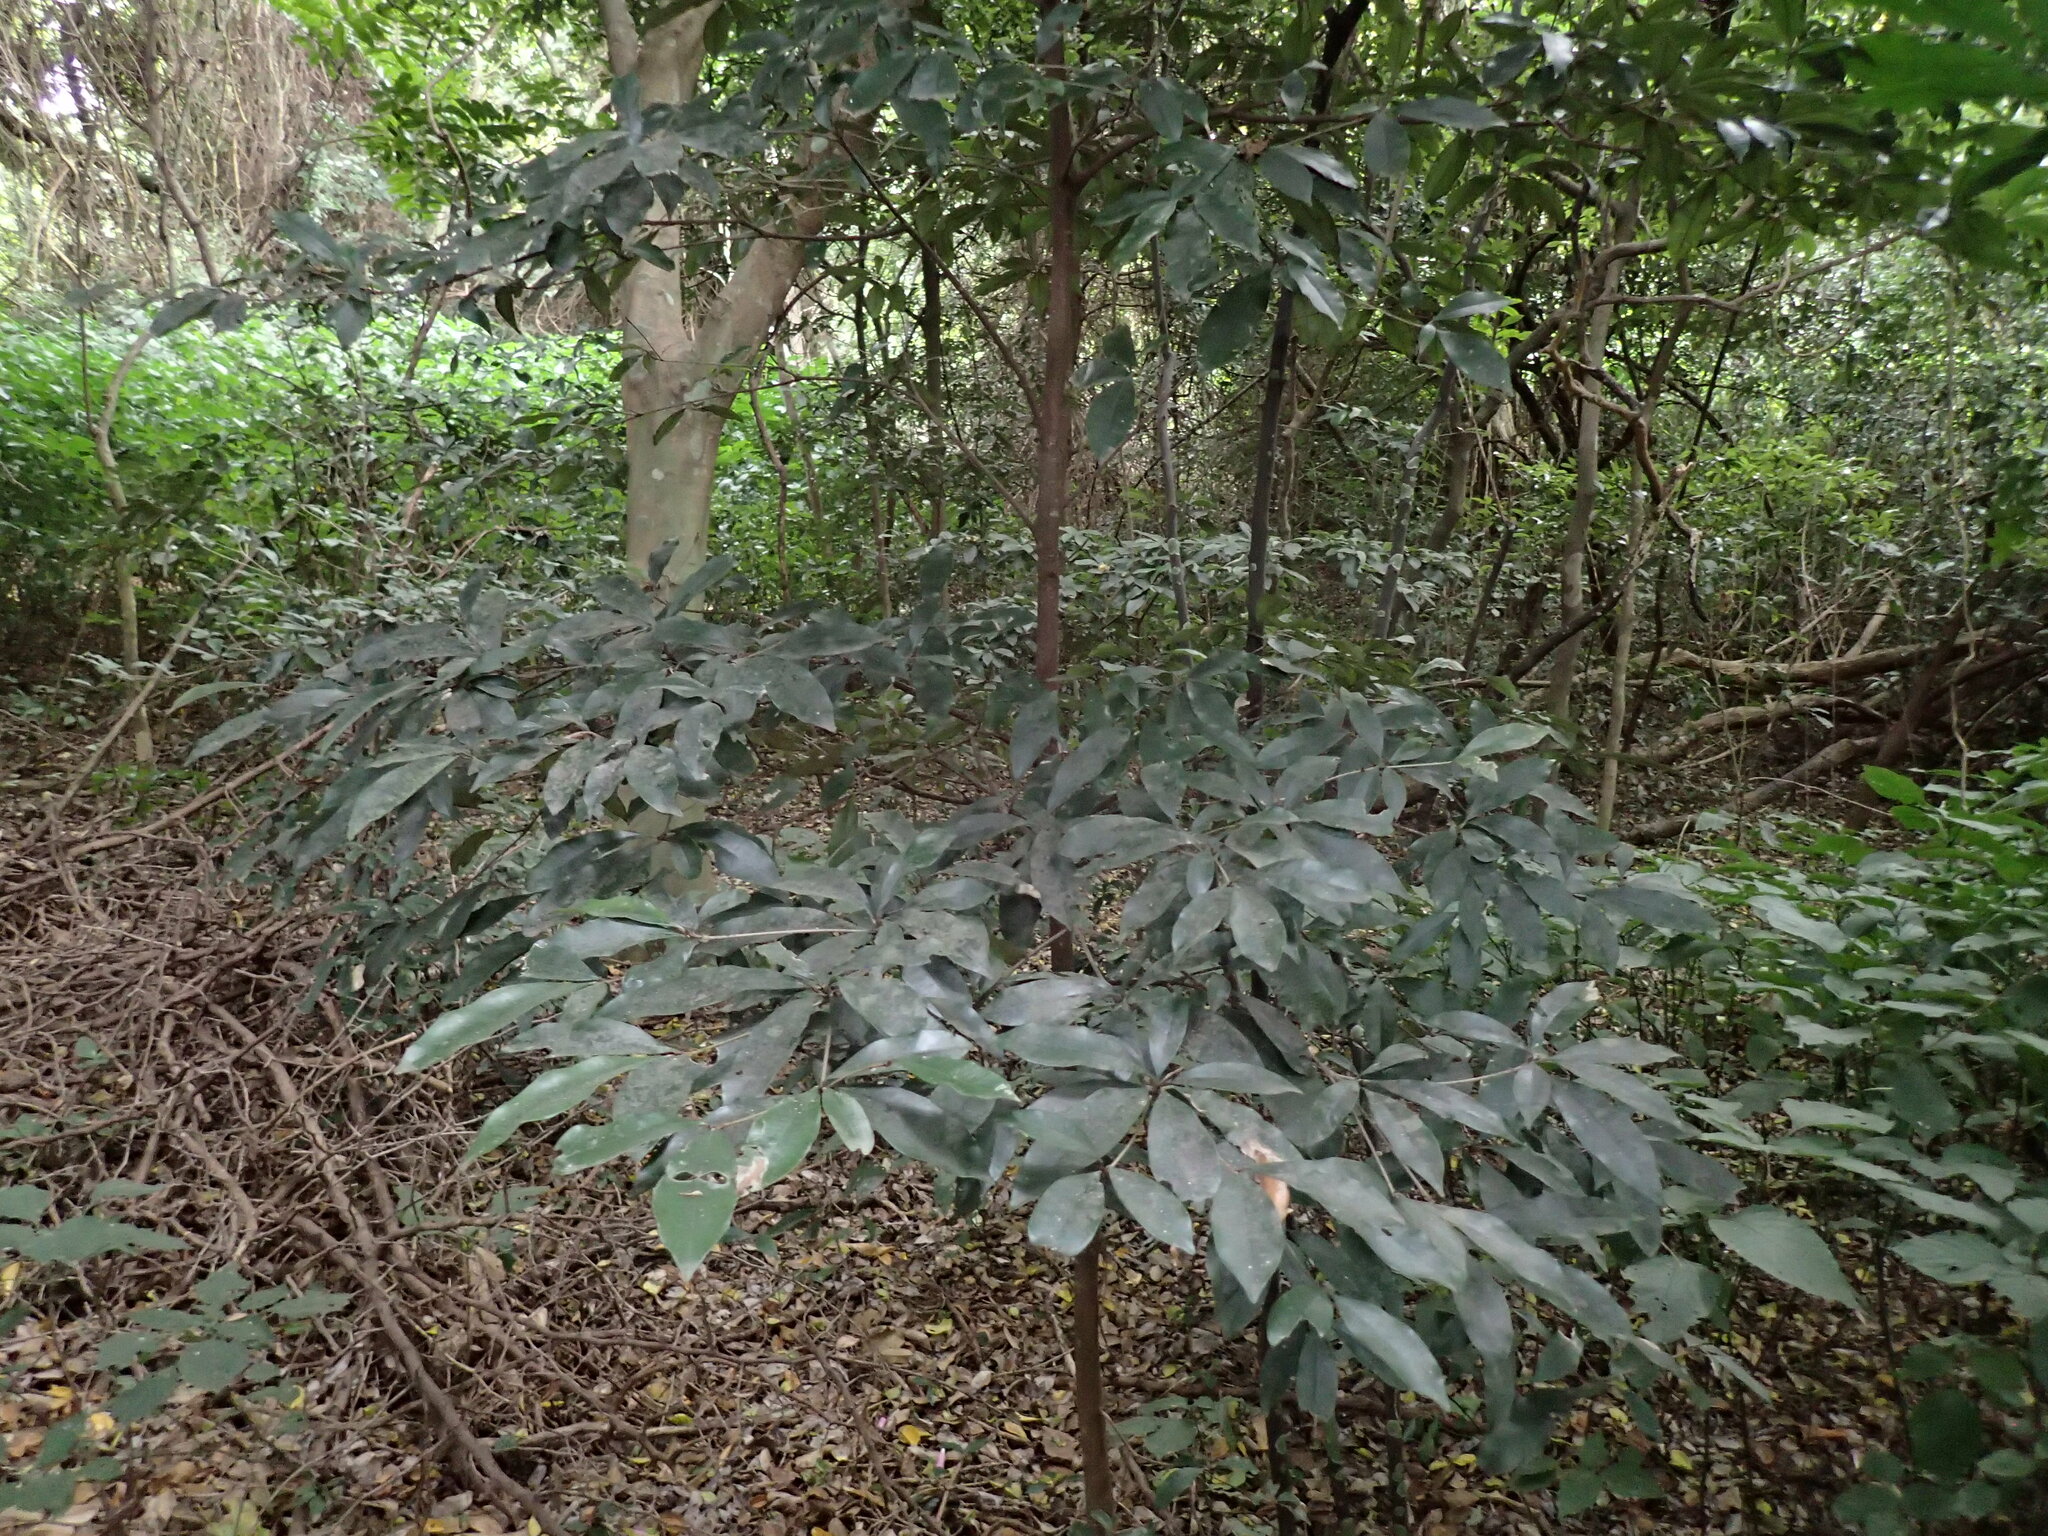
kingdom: Plantae
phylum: Tracheophyta
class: Magnoliopsida
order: Ericales
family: Sapotaceae
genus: Englerophytum
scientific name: Englerophytum natalense
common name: Silver-leaved milkplum
